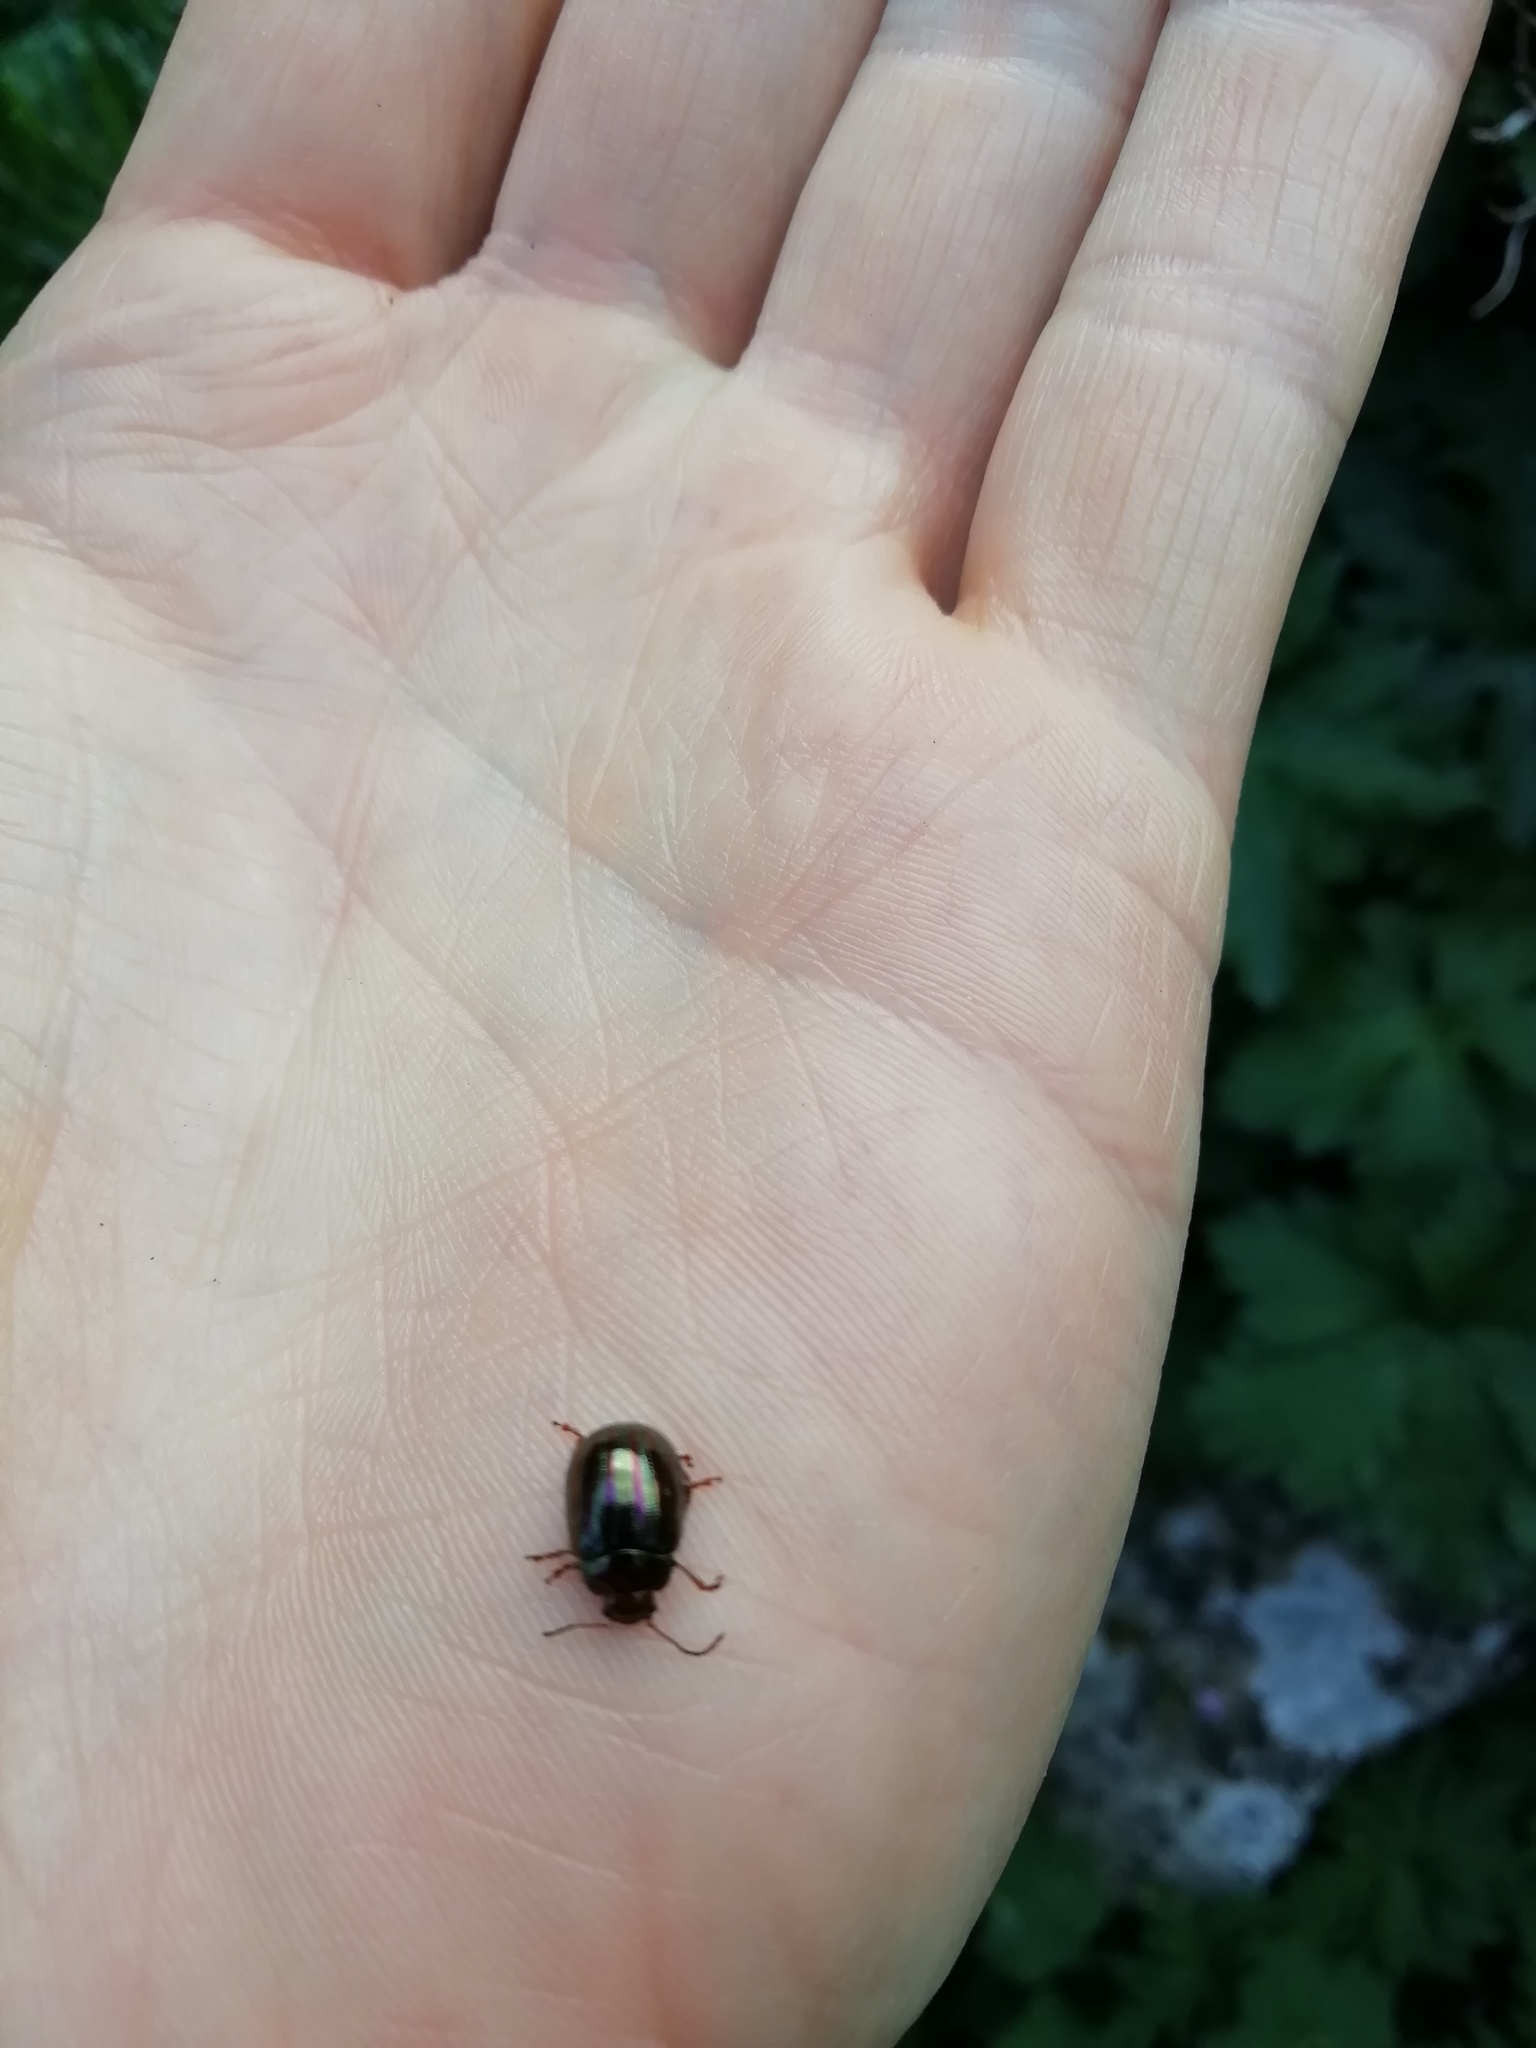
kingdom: Animalia
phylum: Arthropoda
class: Insecta
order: Coleoptera
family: Chrysomelidae
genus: Chrysolina
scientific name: Chrysolina americana
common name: Rosemary beetle
